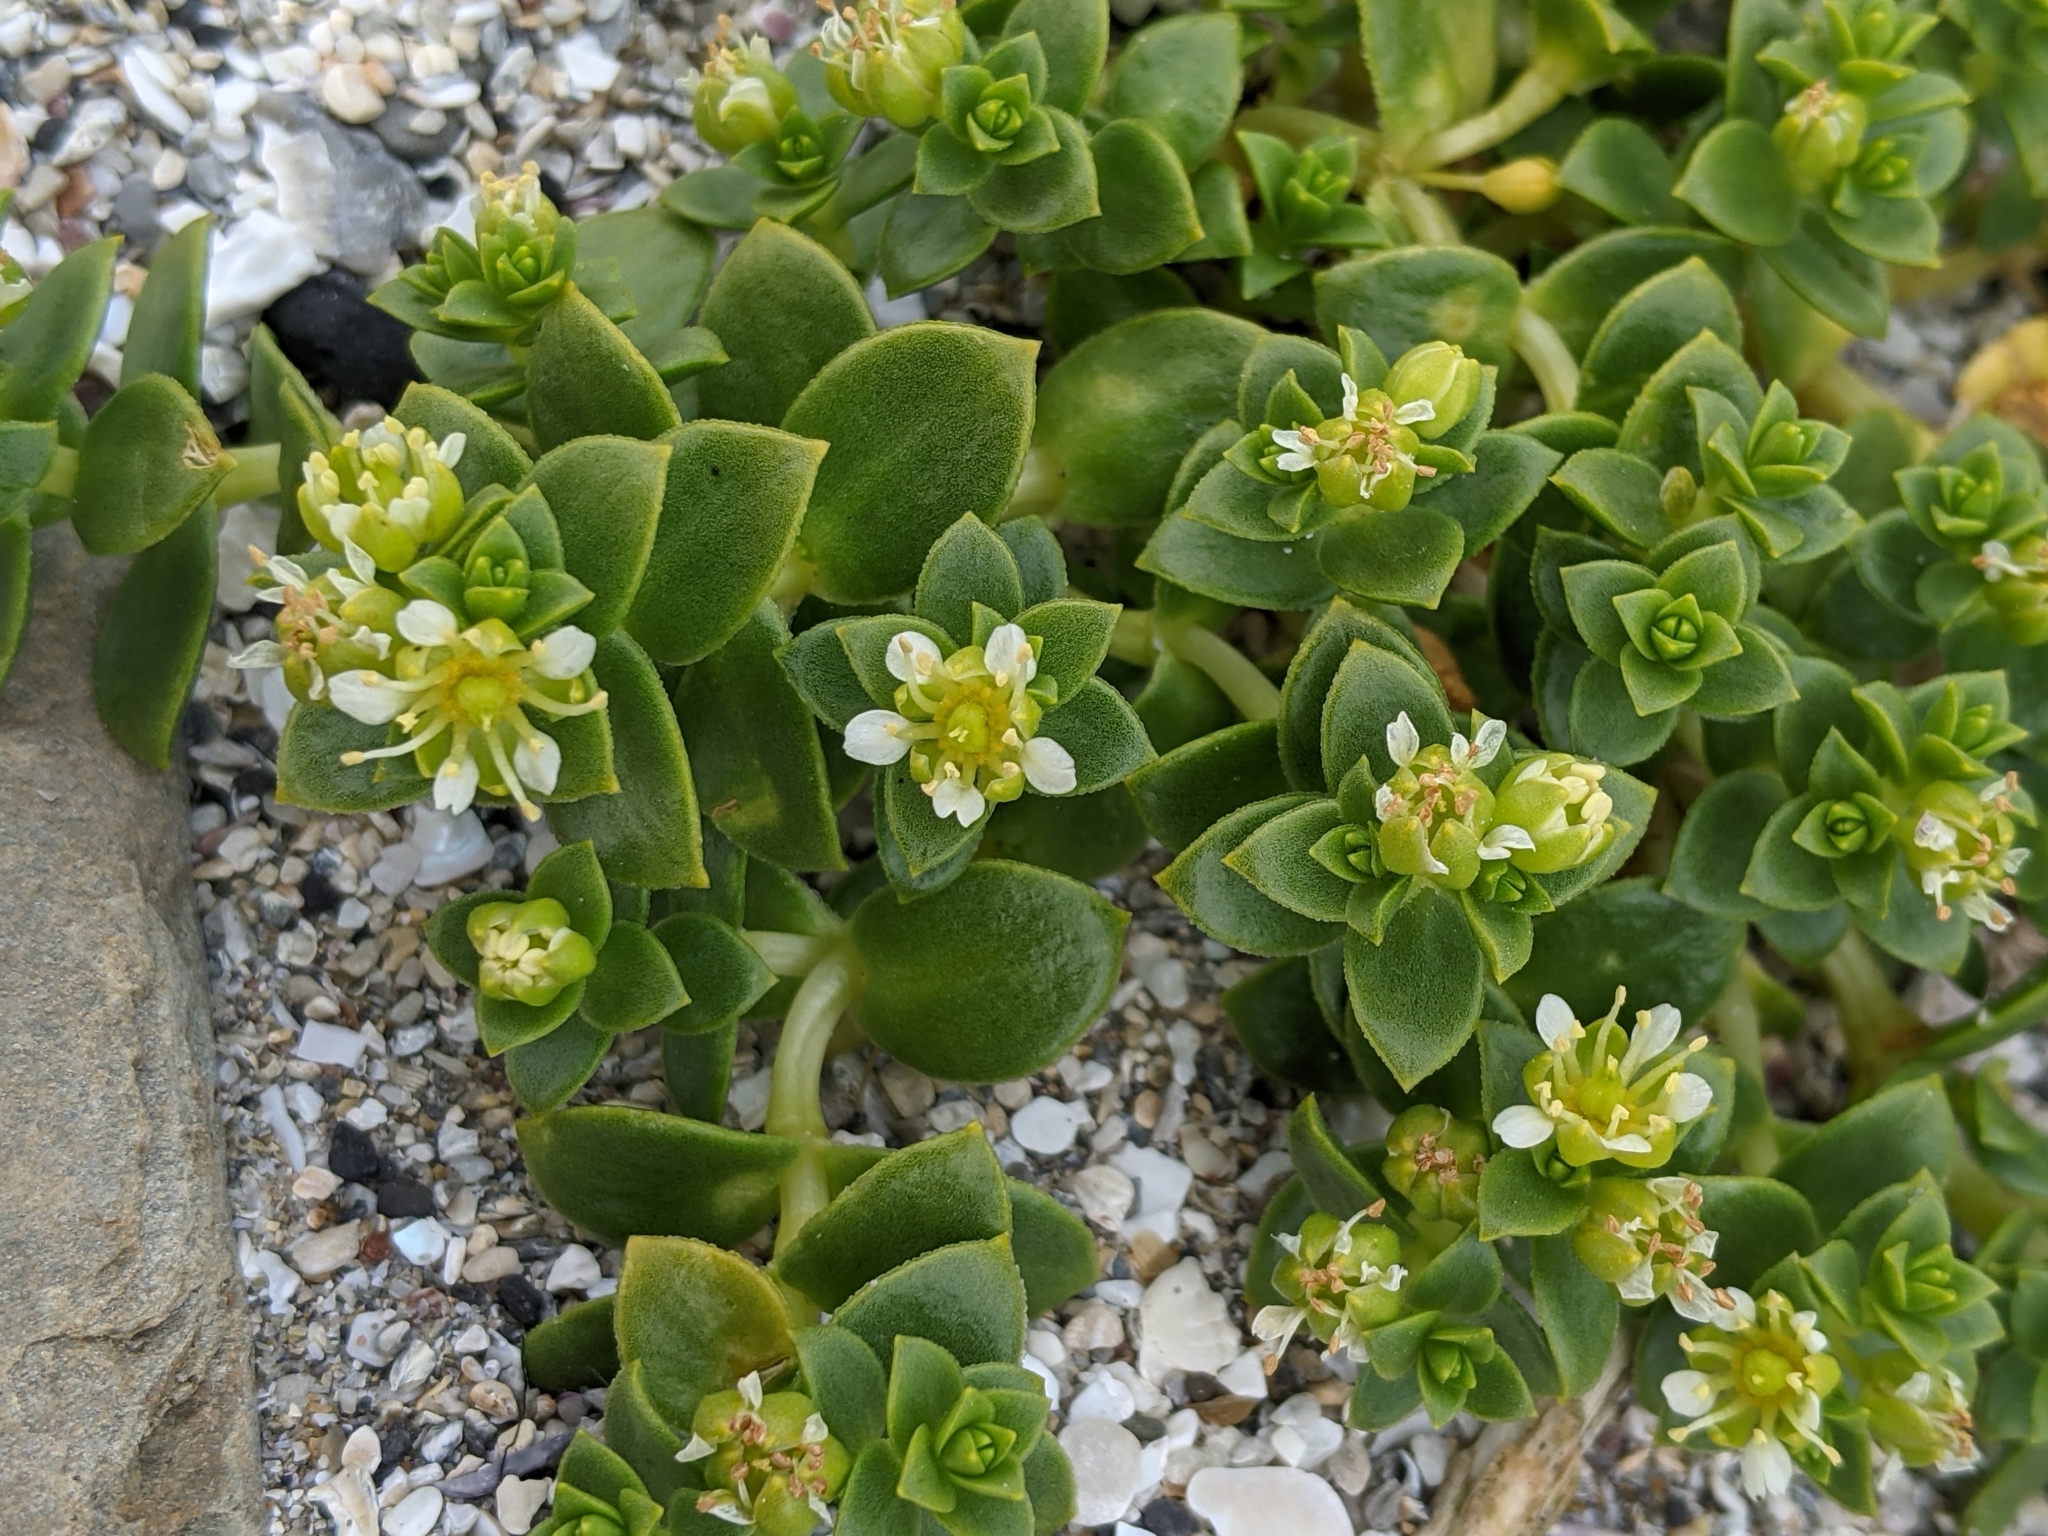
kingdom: Plantae
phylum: Tracheophyta
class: Magnoliopsida
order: Caryophyllales
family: Caryophyllaceae
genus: Honckenya
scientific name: Honckenya peploides
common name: Sea sandwort
